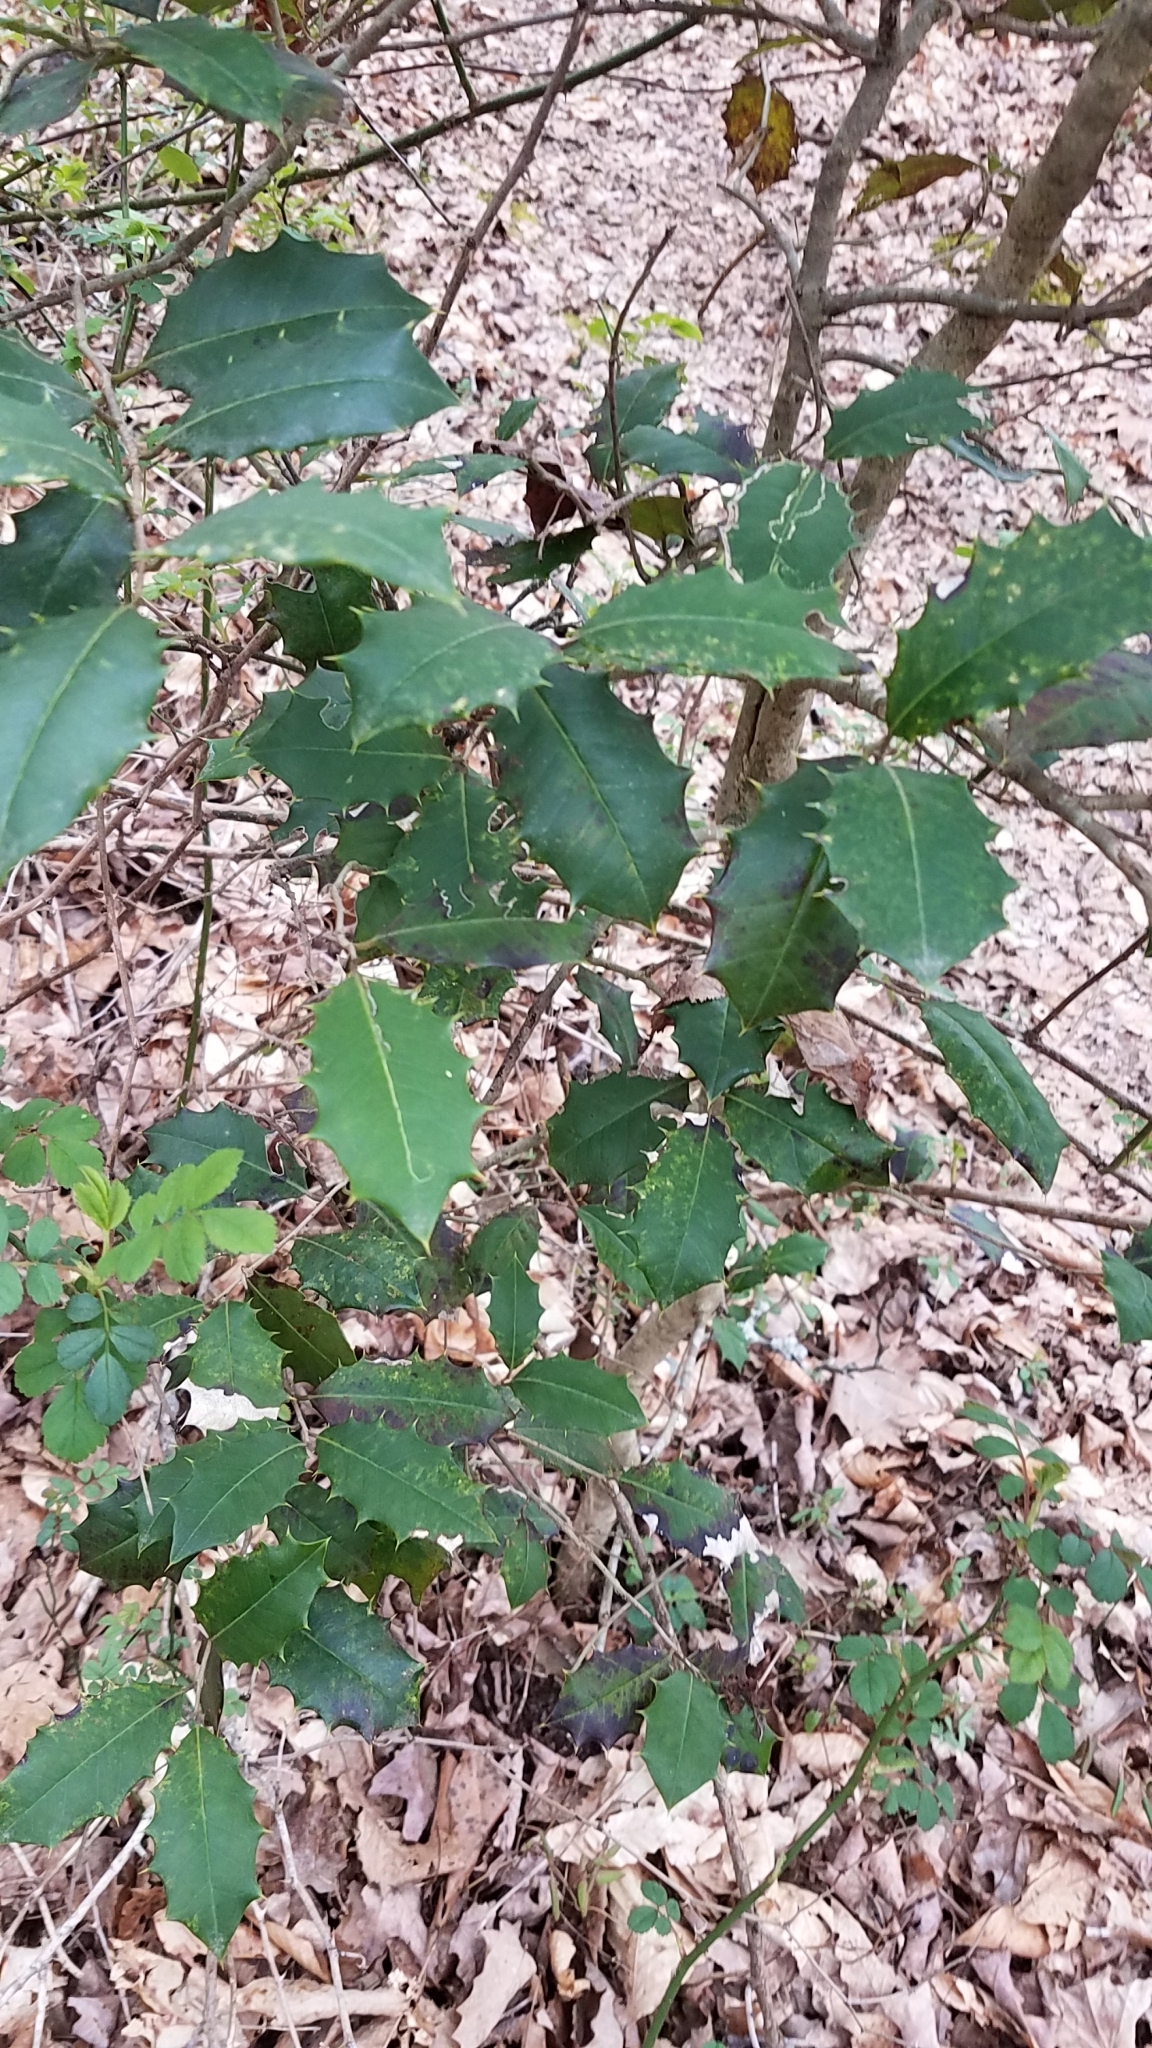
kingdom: Plantae
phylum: Tracheophyta
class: Magnoliopsida
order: Aquifoliales
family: Aquifoliaceae
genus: Ilex
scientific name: Ilex opaca
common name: American holly
